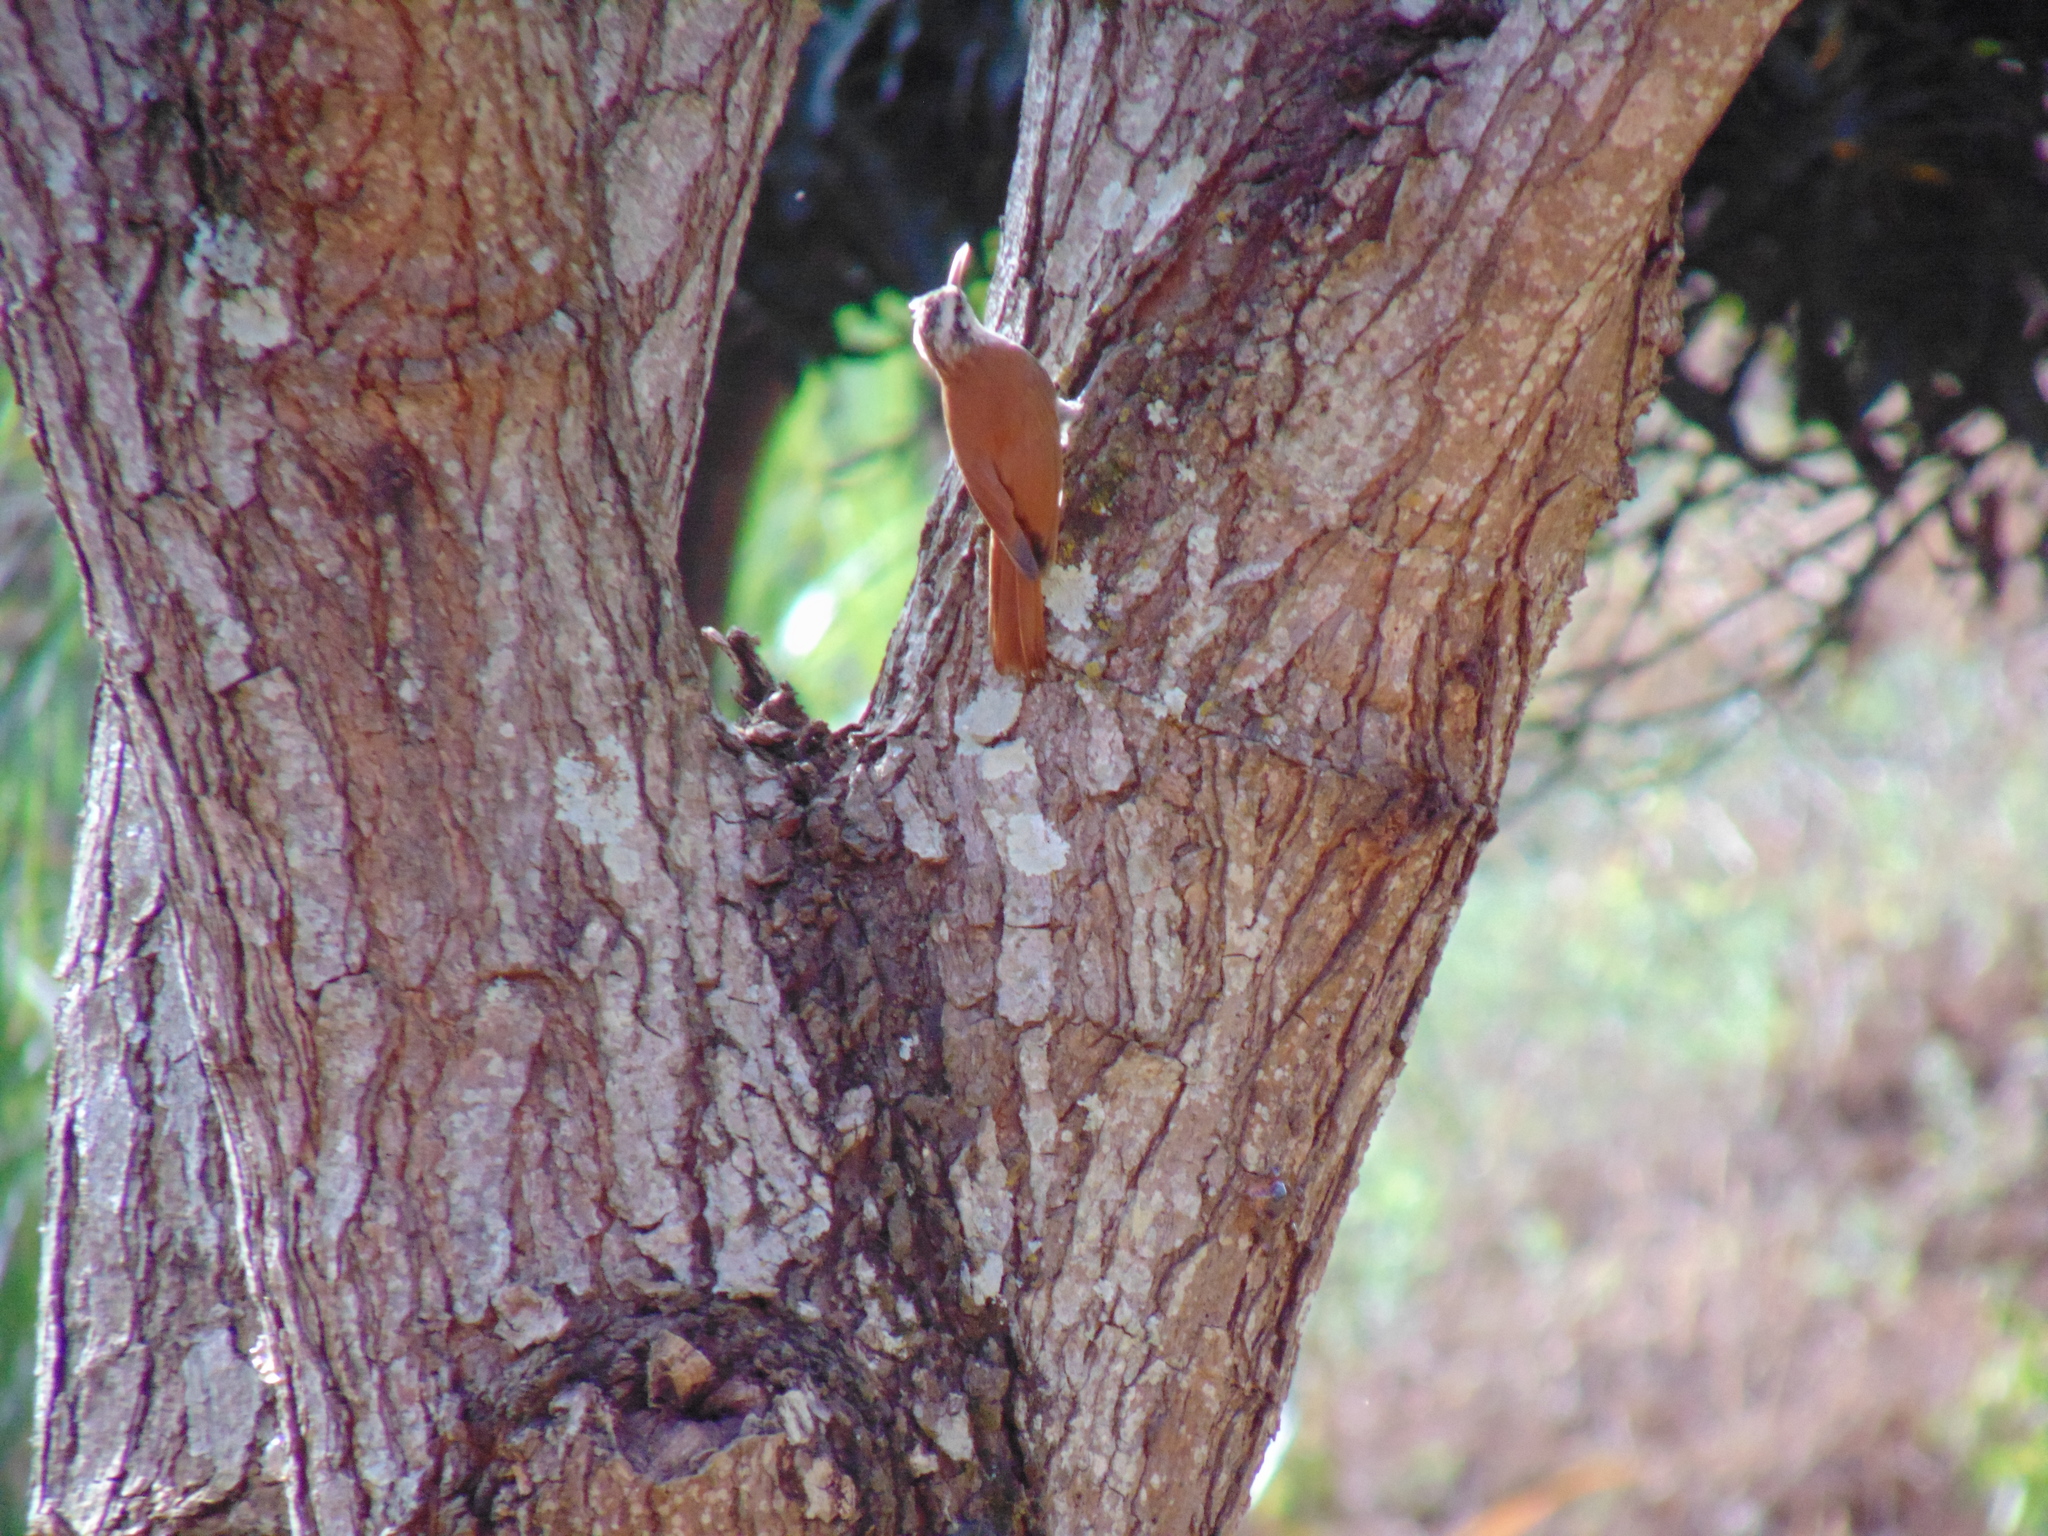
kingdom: Animalia
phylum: Chordata
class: Aves
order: Passeriformes
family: Furnariidae
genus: Lepidocolaptes
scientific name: Lepidocolaptes angustirostris
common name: Narrow-billed woodcreeper
